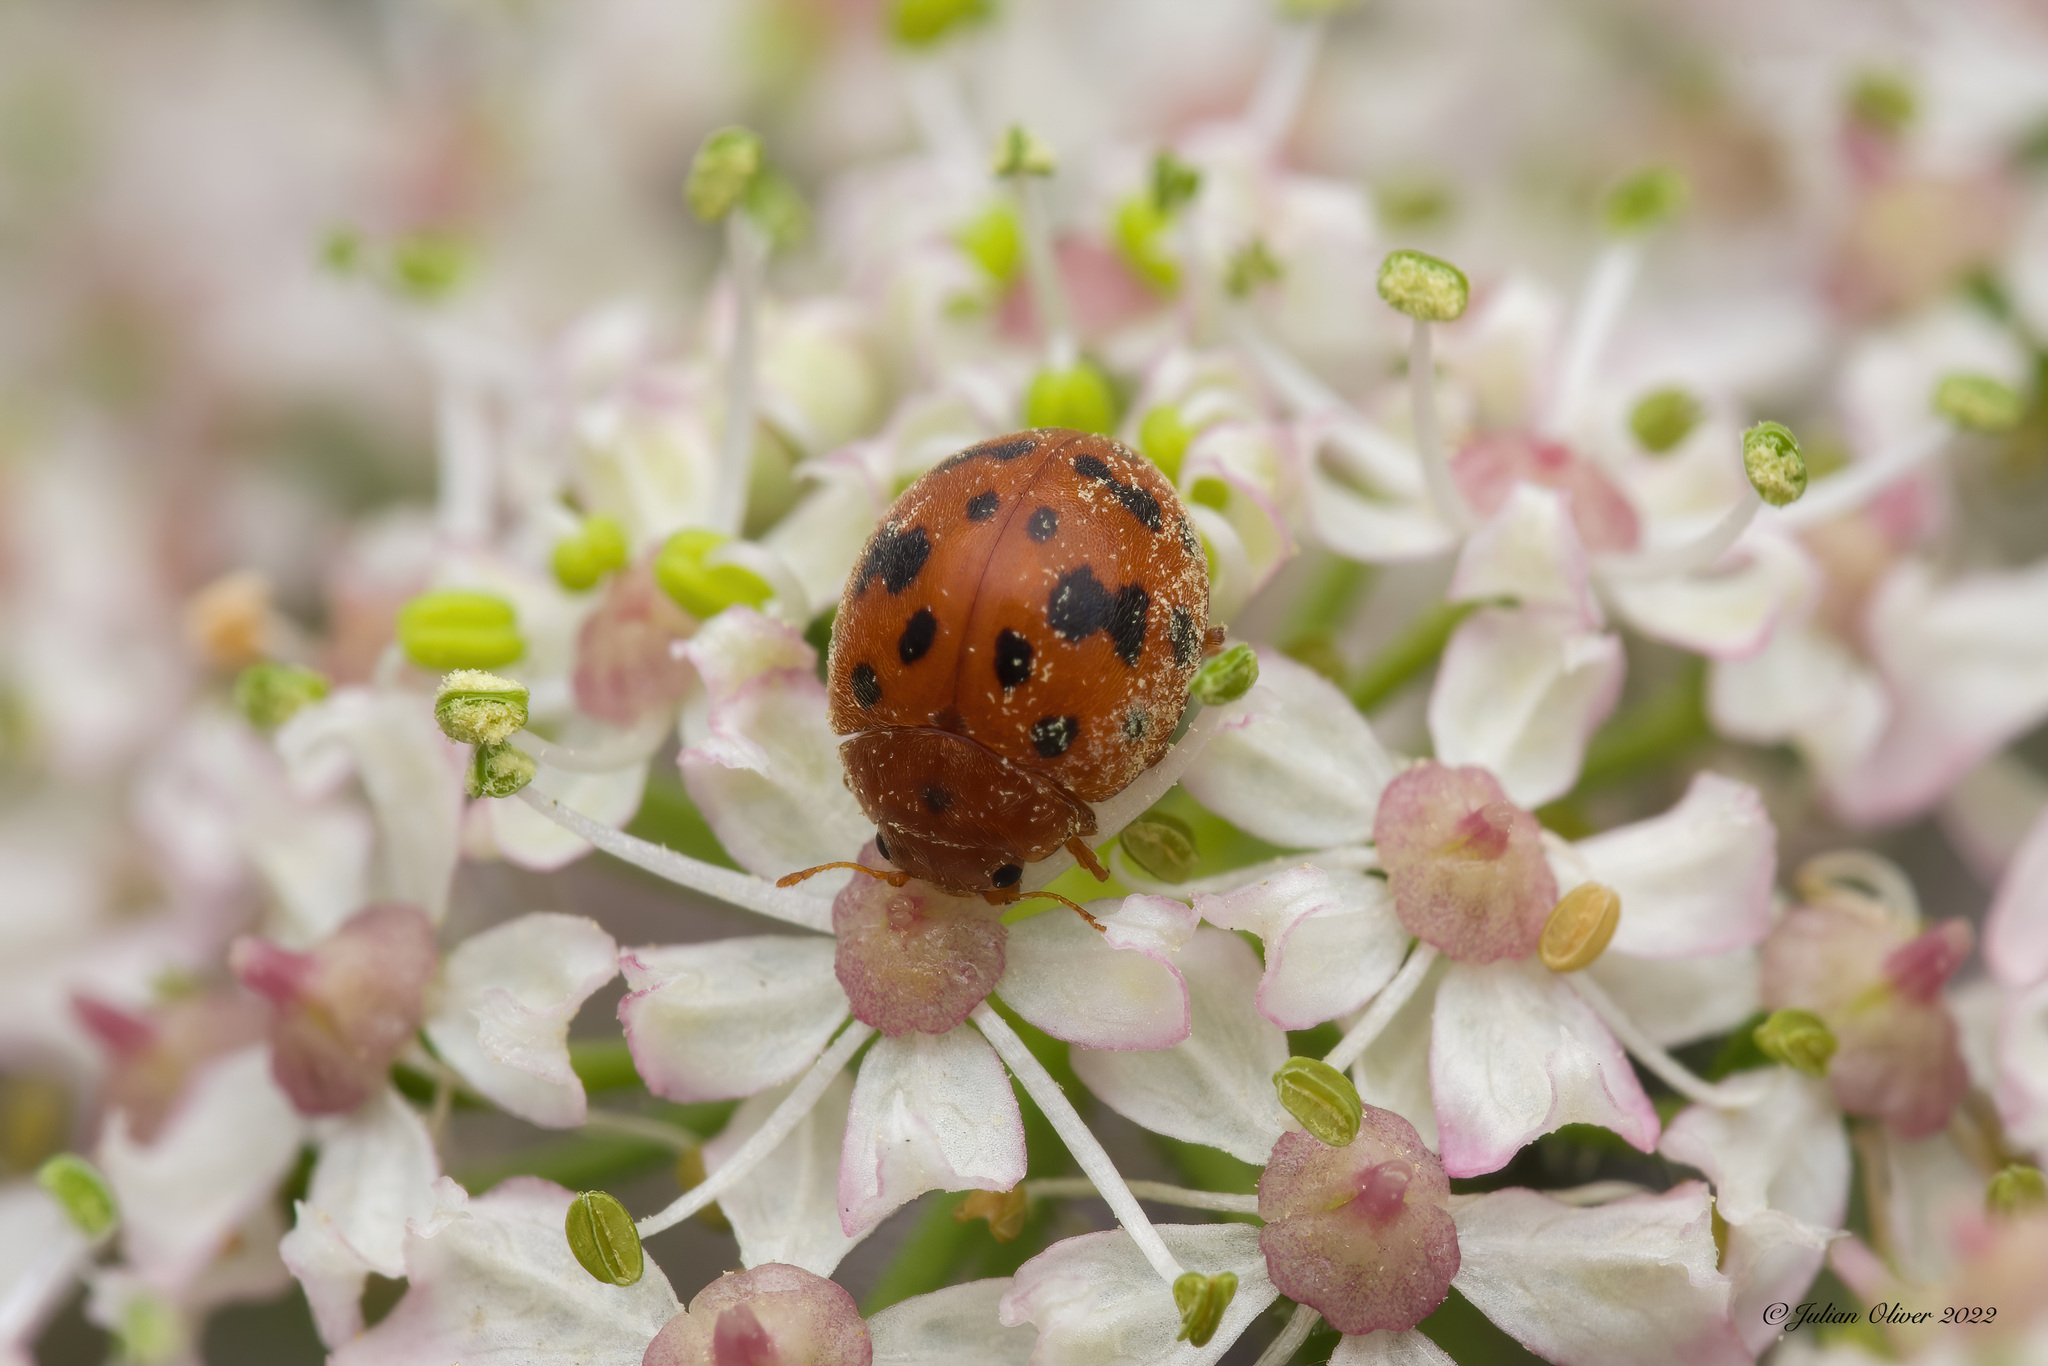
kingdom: Animalia
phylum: Arthropoda
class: Insecta
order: Coleoptera
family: Coccinellidae
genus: Subcoccinella
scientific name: Subcoccinella vigintiquatuorpunctata
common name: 24-spot ladybird
